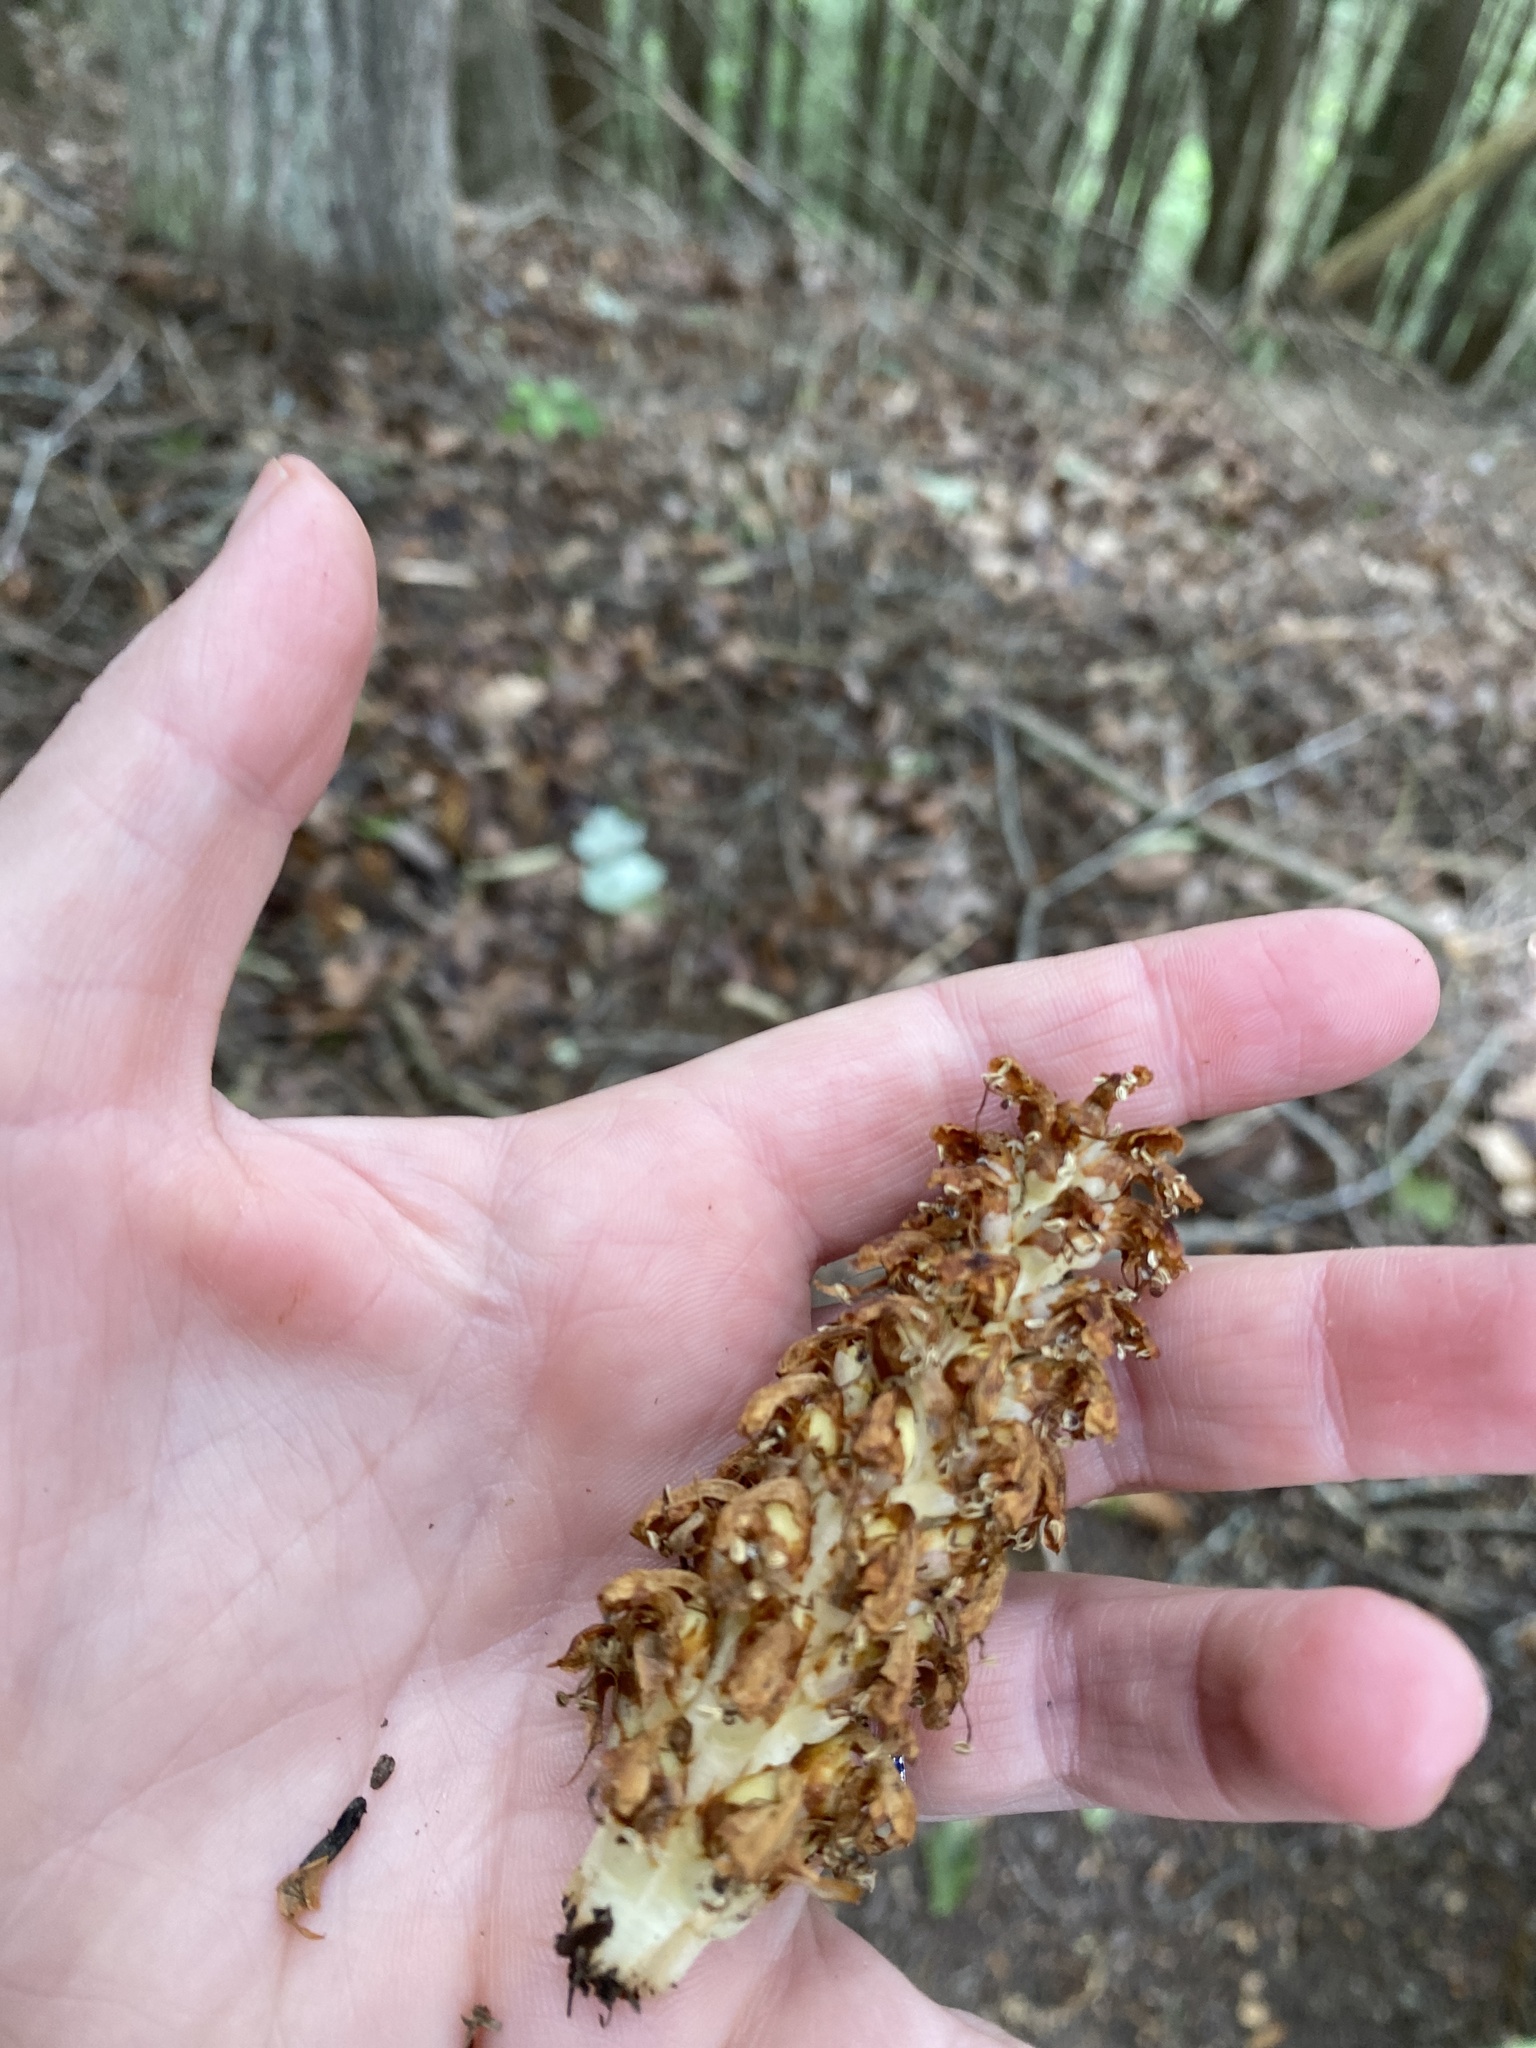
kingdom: Plantae
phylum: Tracheophyta
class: Magnoliopsida
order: Lamiales
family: Orobanchaceae
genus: Conopholis
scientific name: Conopholis americana
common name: American cancer-root
